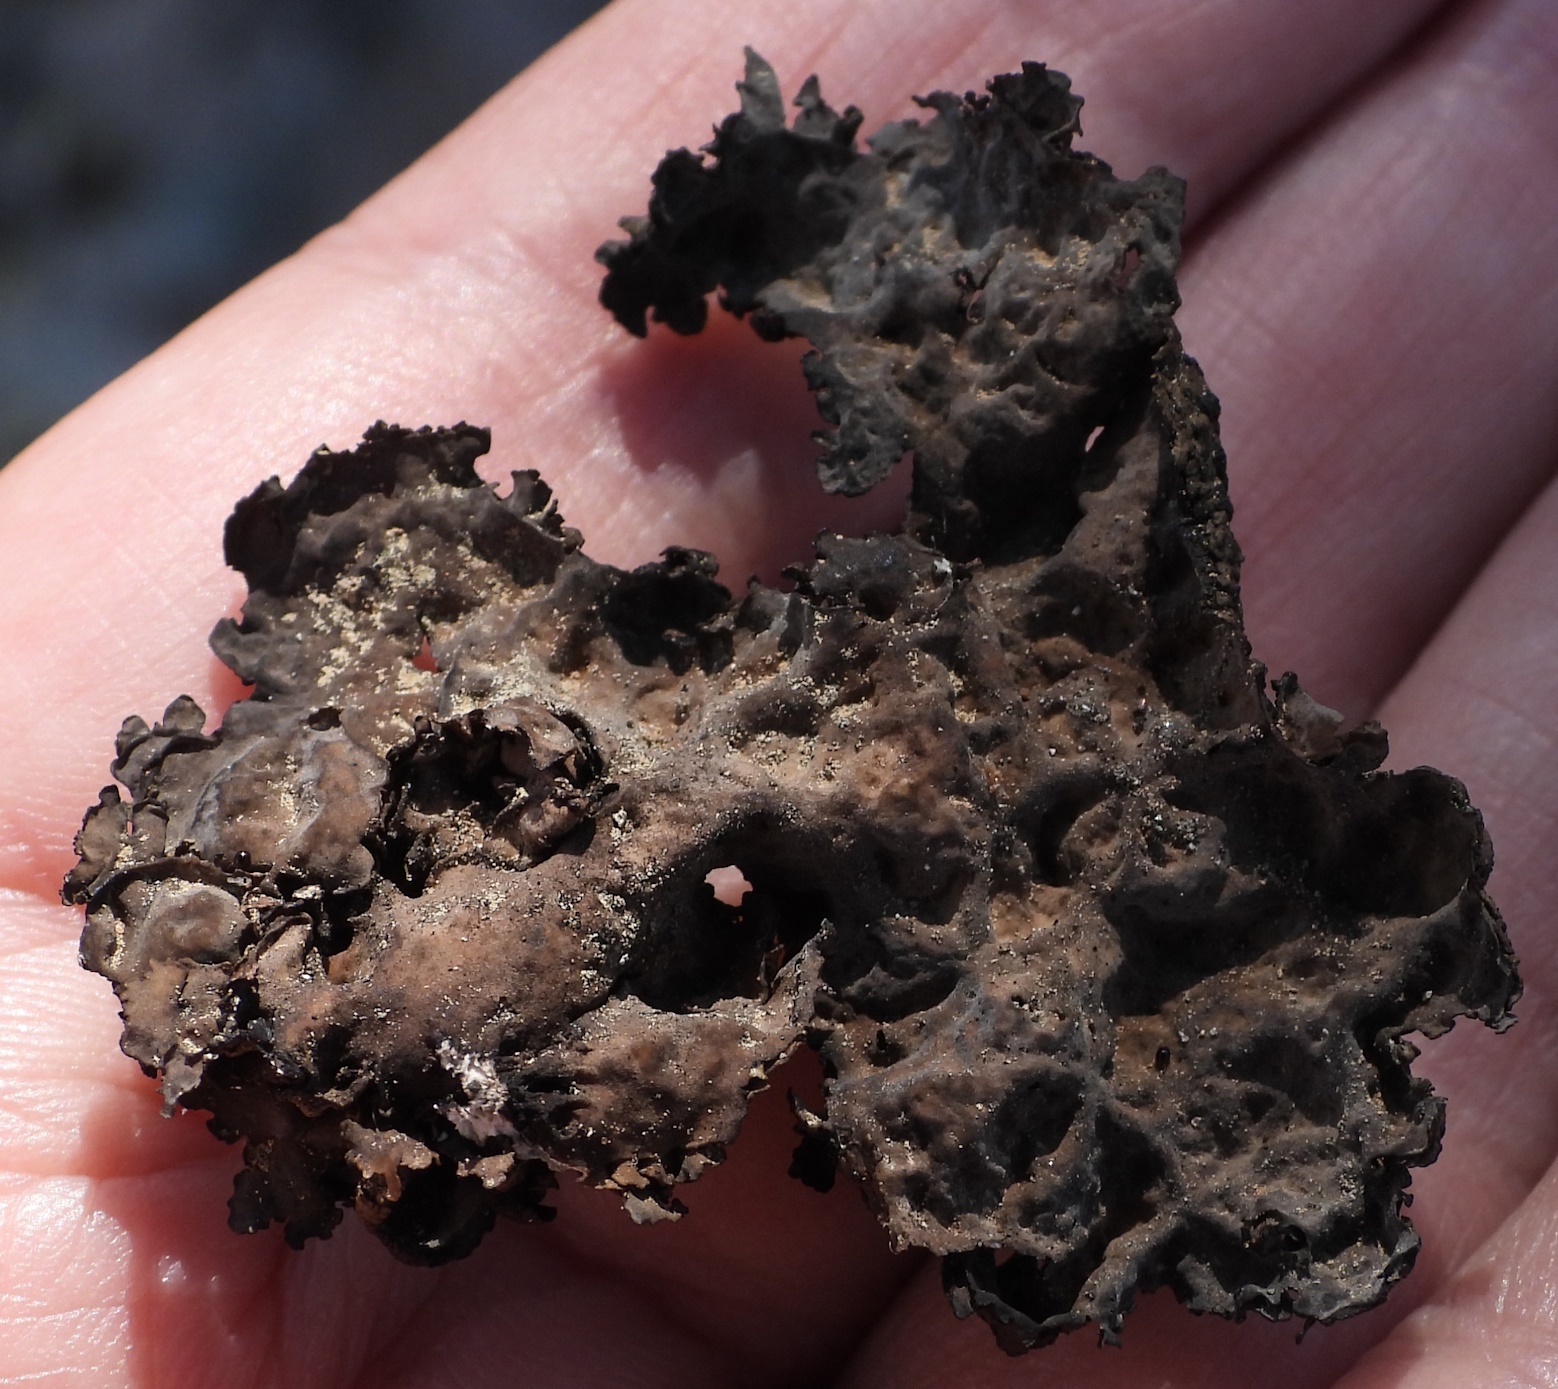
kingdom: Fungi
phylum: Ascomycota
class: Lecanoromycetes
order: Umbilicariales
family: Umbilicariaceae
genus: Umbilicaria
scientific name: Umbilicaria torrefacta
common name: Punctured rock tripe lichen
